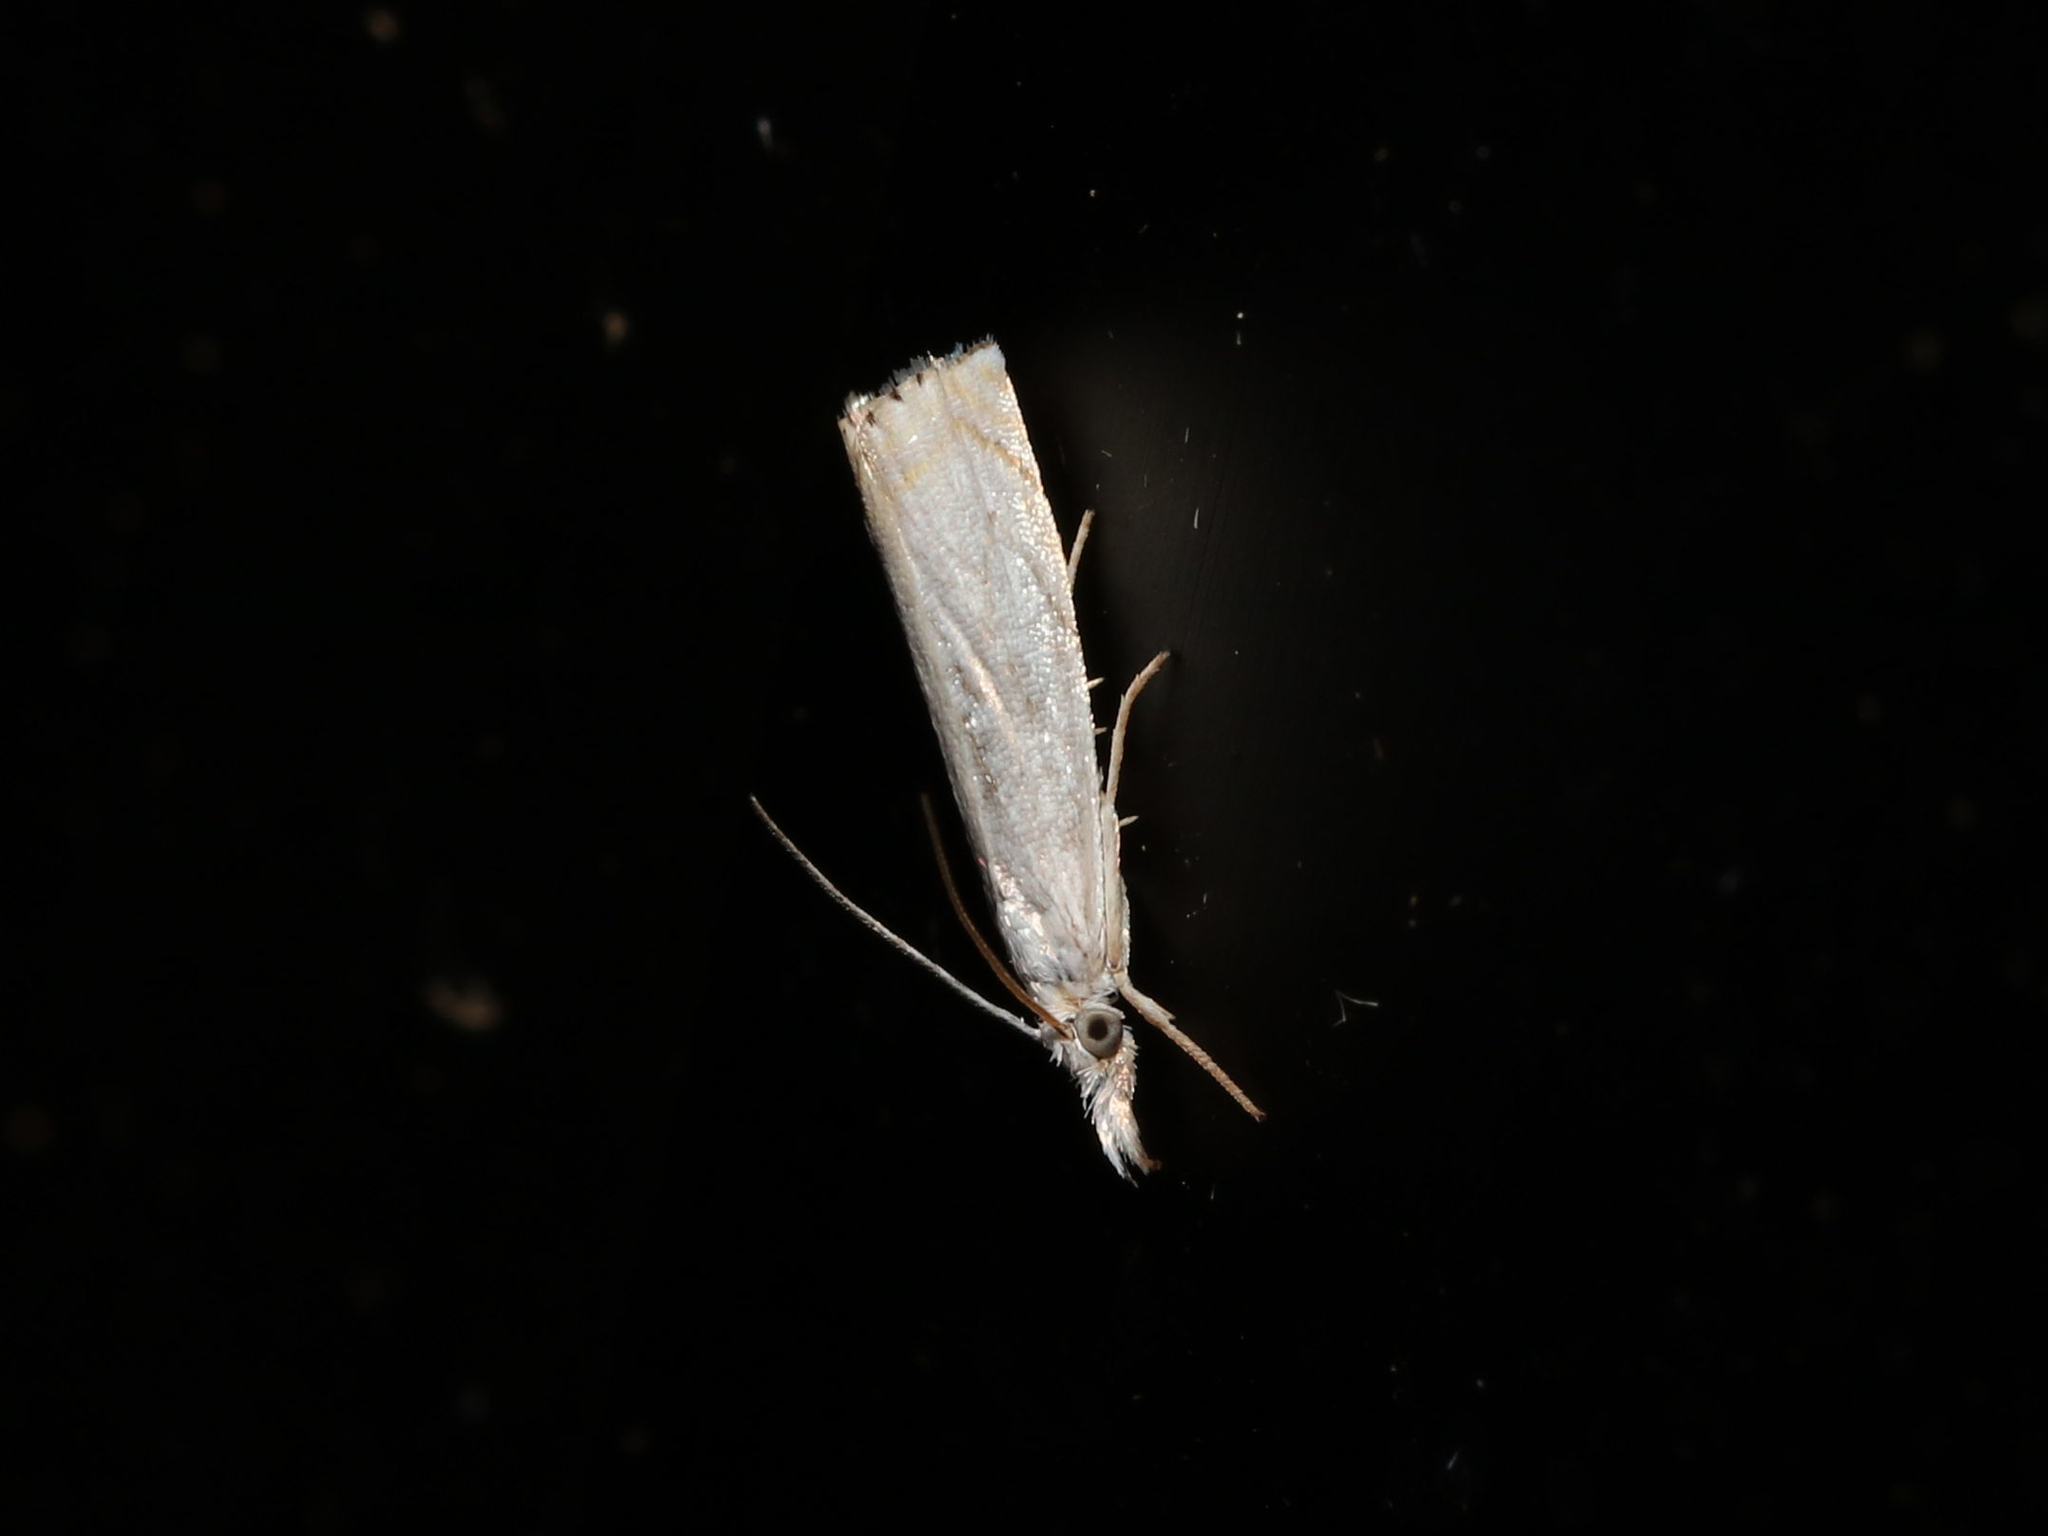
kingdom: Animalia
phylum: Arthropoda
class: Insecta
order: Lepidoptera
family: Crambidae
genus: Crambus
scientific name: Crambus albellus
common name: Small white grass-veneer
